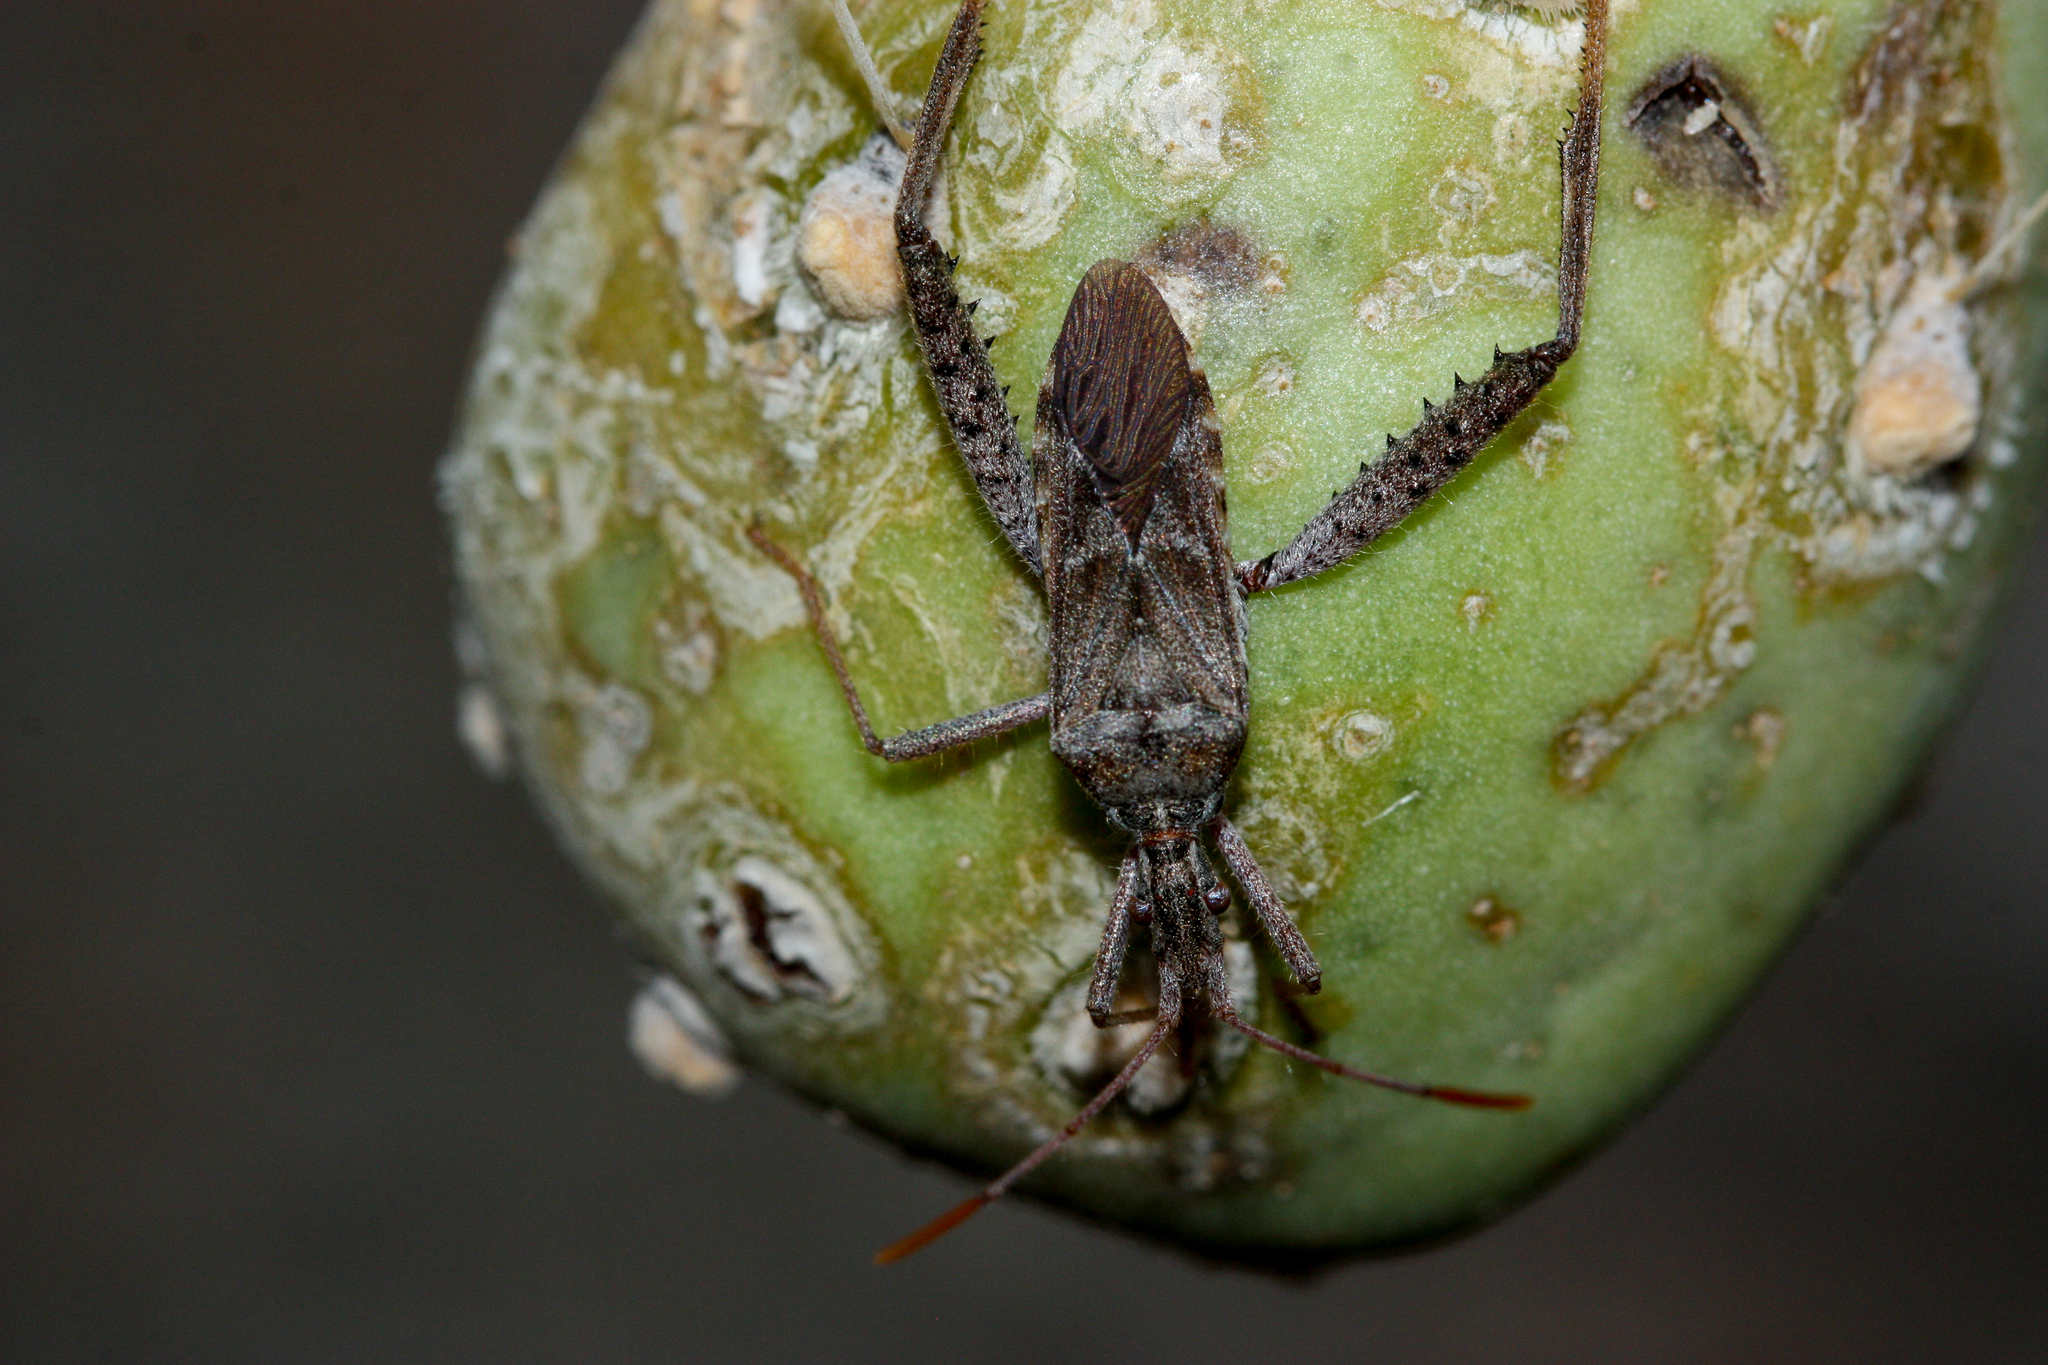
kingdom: Animalia
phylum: Arthropoda
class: Insecta
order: Hemiptera
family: Coreidae
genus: Narnia
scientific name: Narnia femorata
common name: Leaf-footed cactus bug
